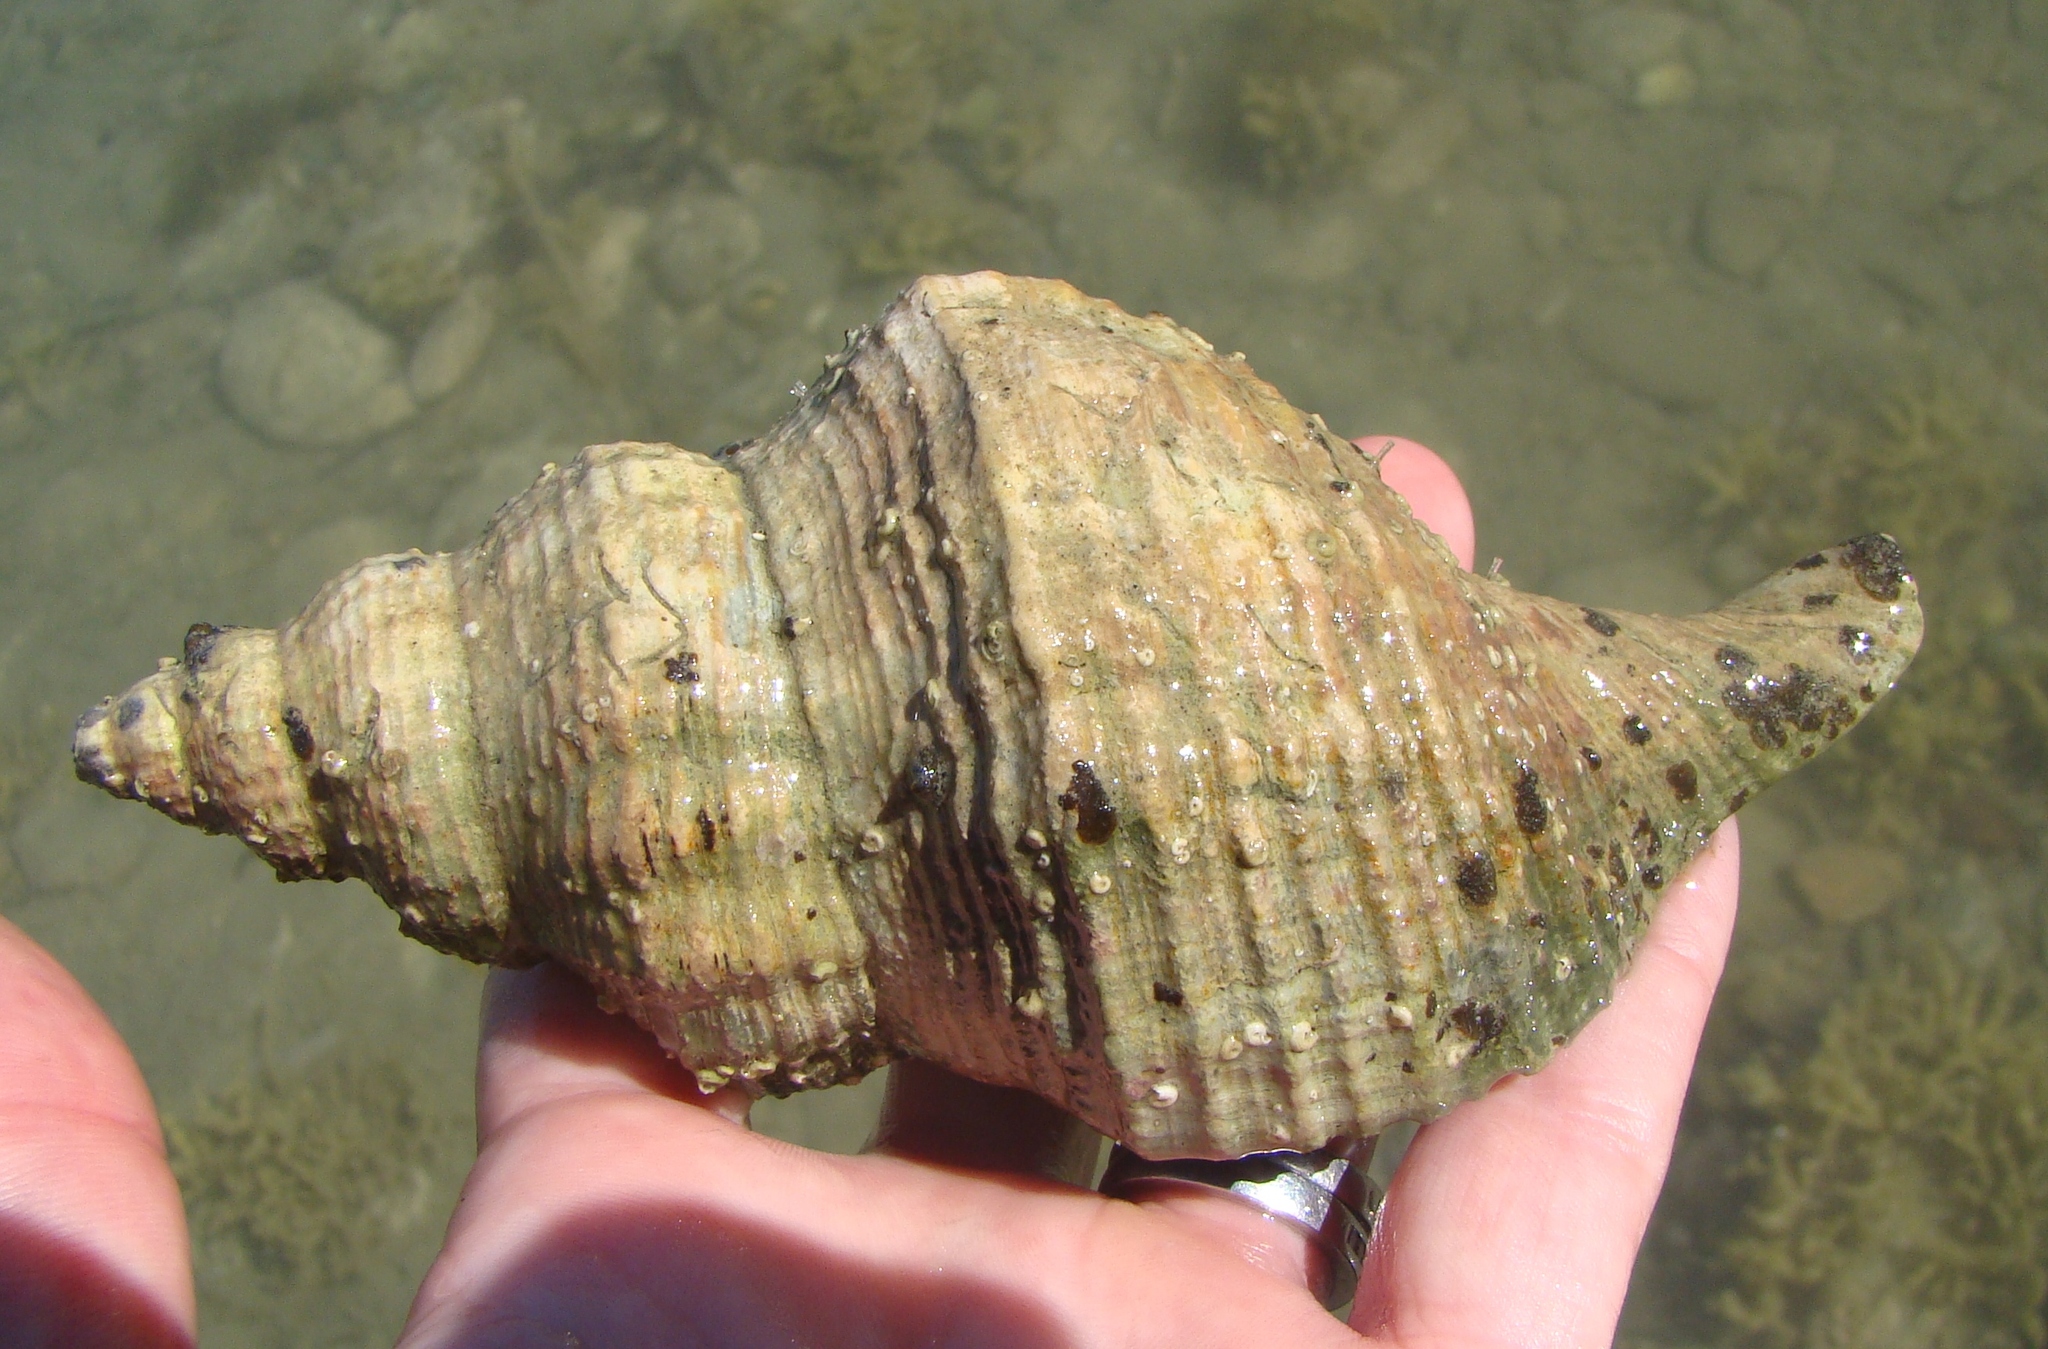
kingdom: Animalia
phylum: Mollusca
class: Gastropoda
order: Neogastropoda
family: Austrosiphonidae
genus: Penion
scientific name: Penion sulcatus
